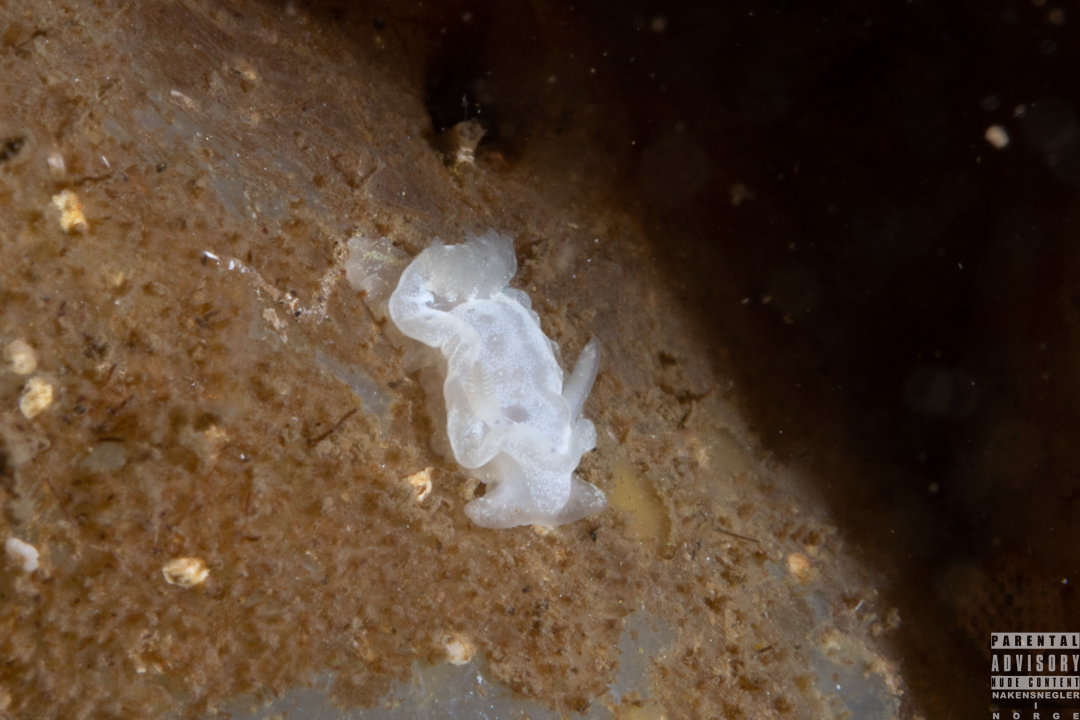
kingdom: Animalia
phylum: Mollusca
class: Gastropoda
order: Nudibranchia
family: Goniodorididae
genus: Okenia
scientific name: Okenia
